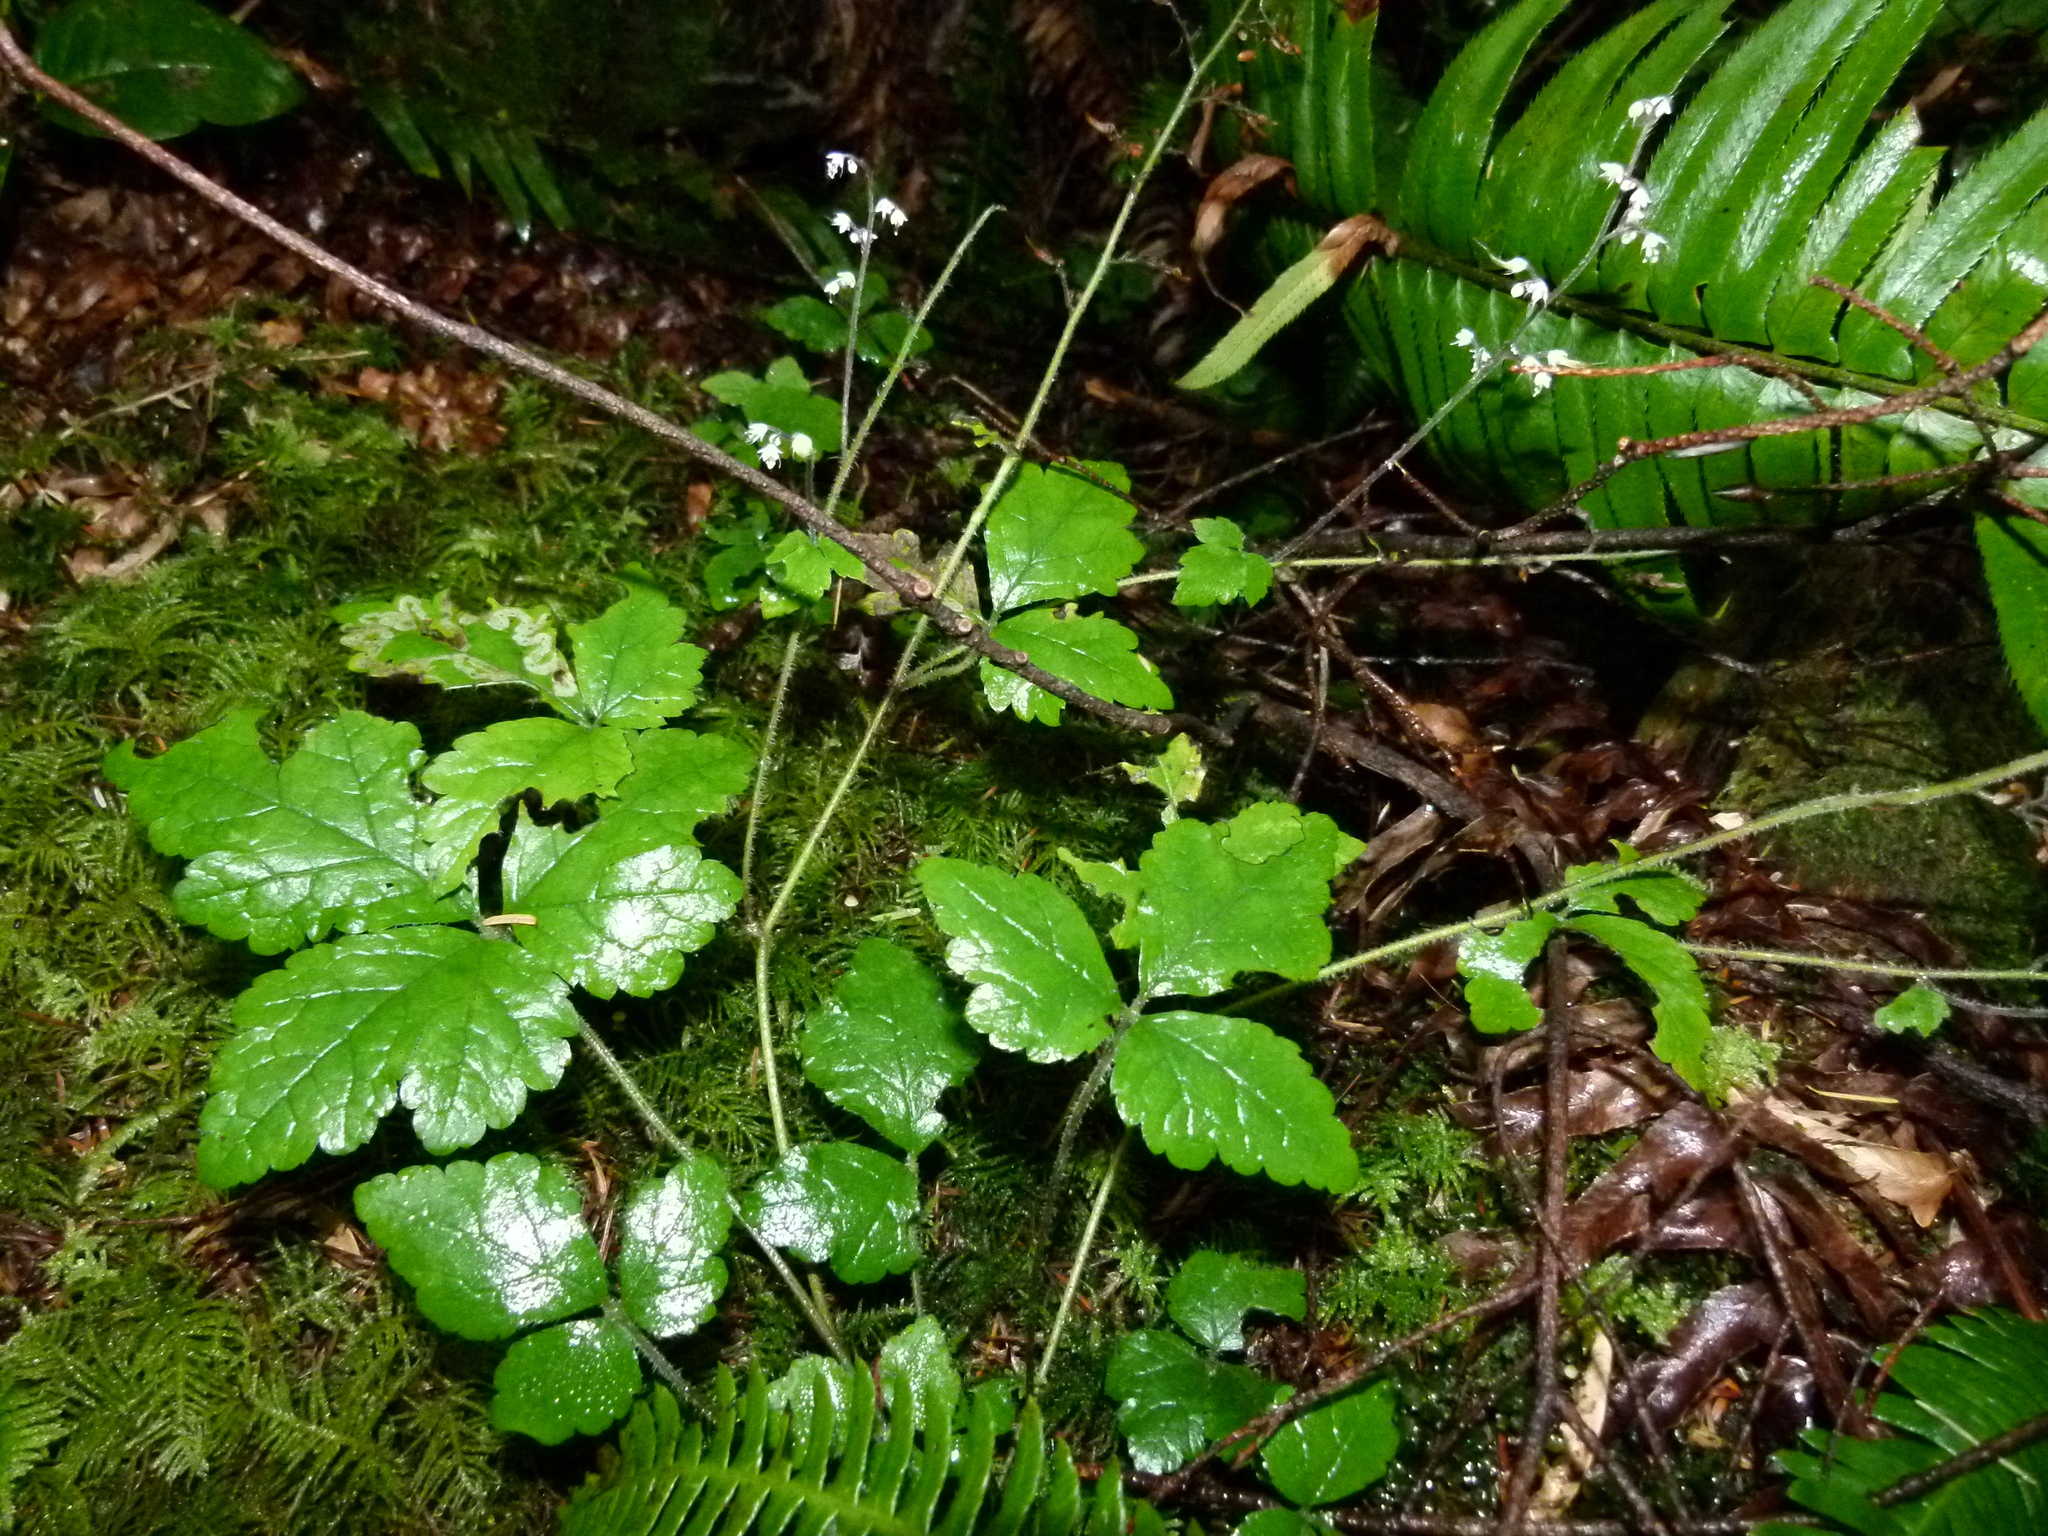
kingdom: Plantae
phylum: Tracheophyta
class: Magnoliopsida
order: Saxifragales
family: Saxifragaceae
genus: Tiarella
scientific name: Tiarella trifoliata
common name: Sugar-scoop
